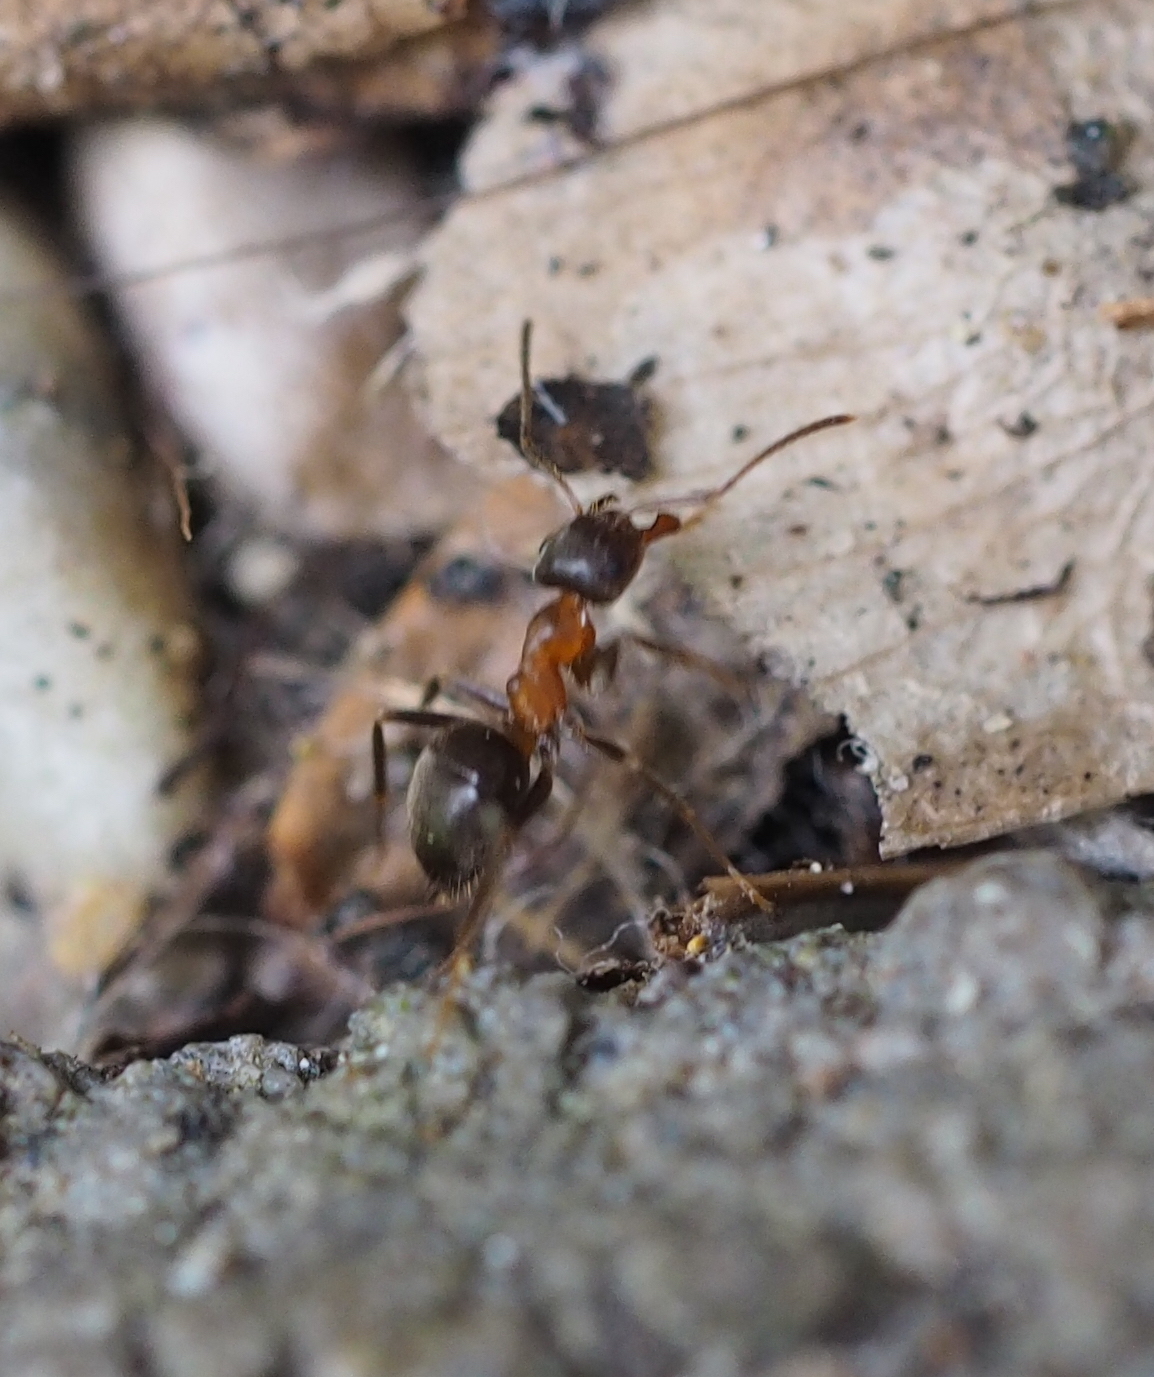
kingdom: Animalia
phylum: Arthropoda
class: Insecta
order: Hymenoptera
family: Formicidae
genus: Lasius
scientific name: Lasius emarginatus
